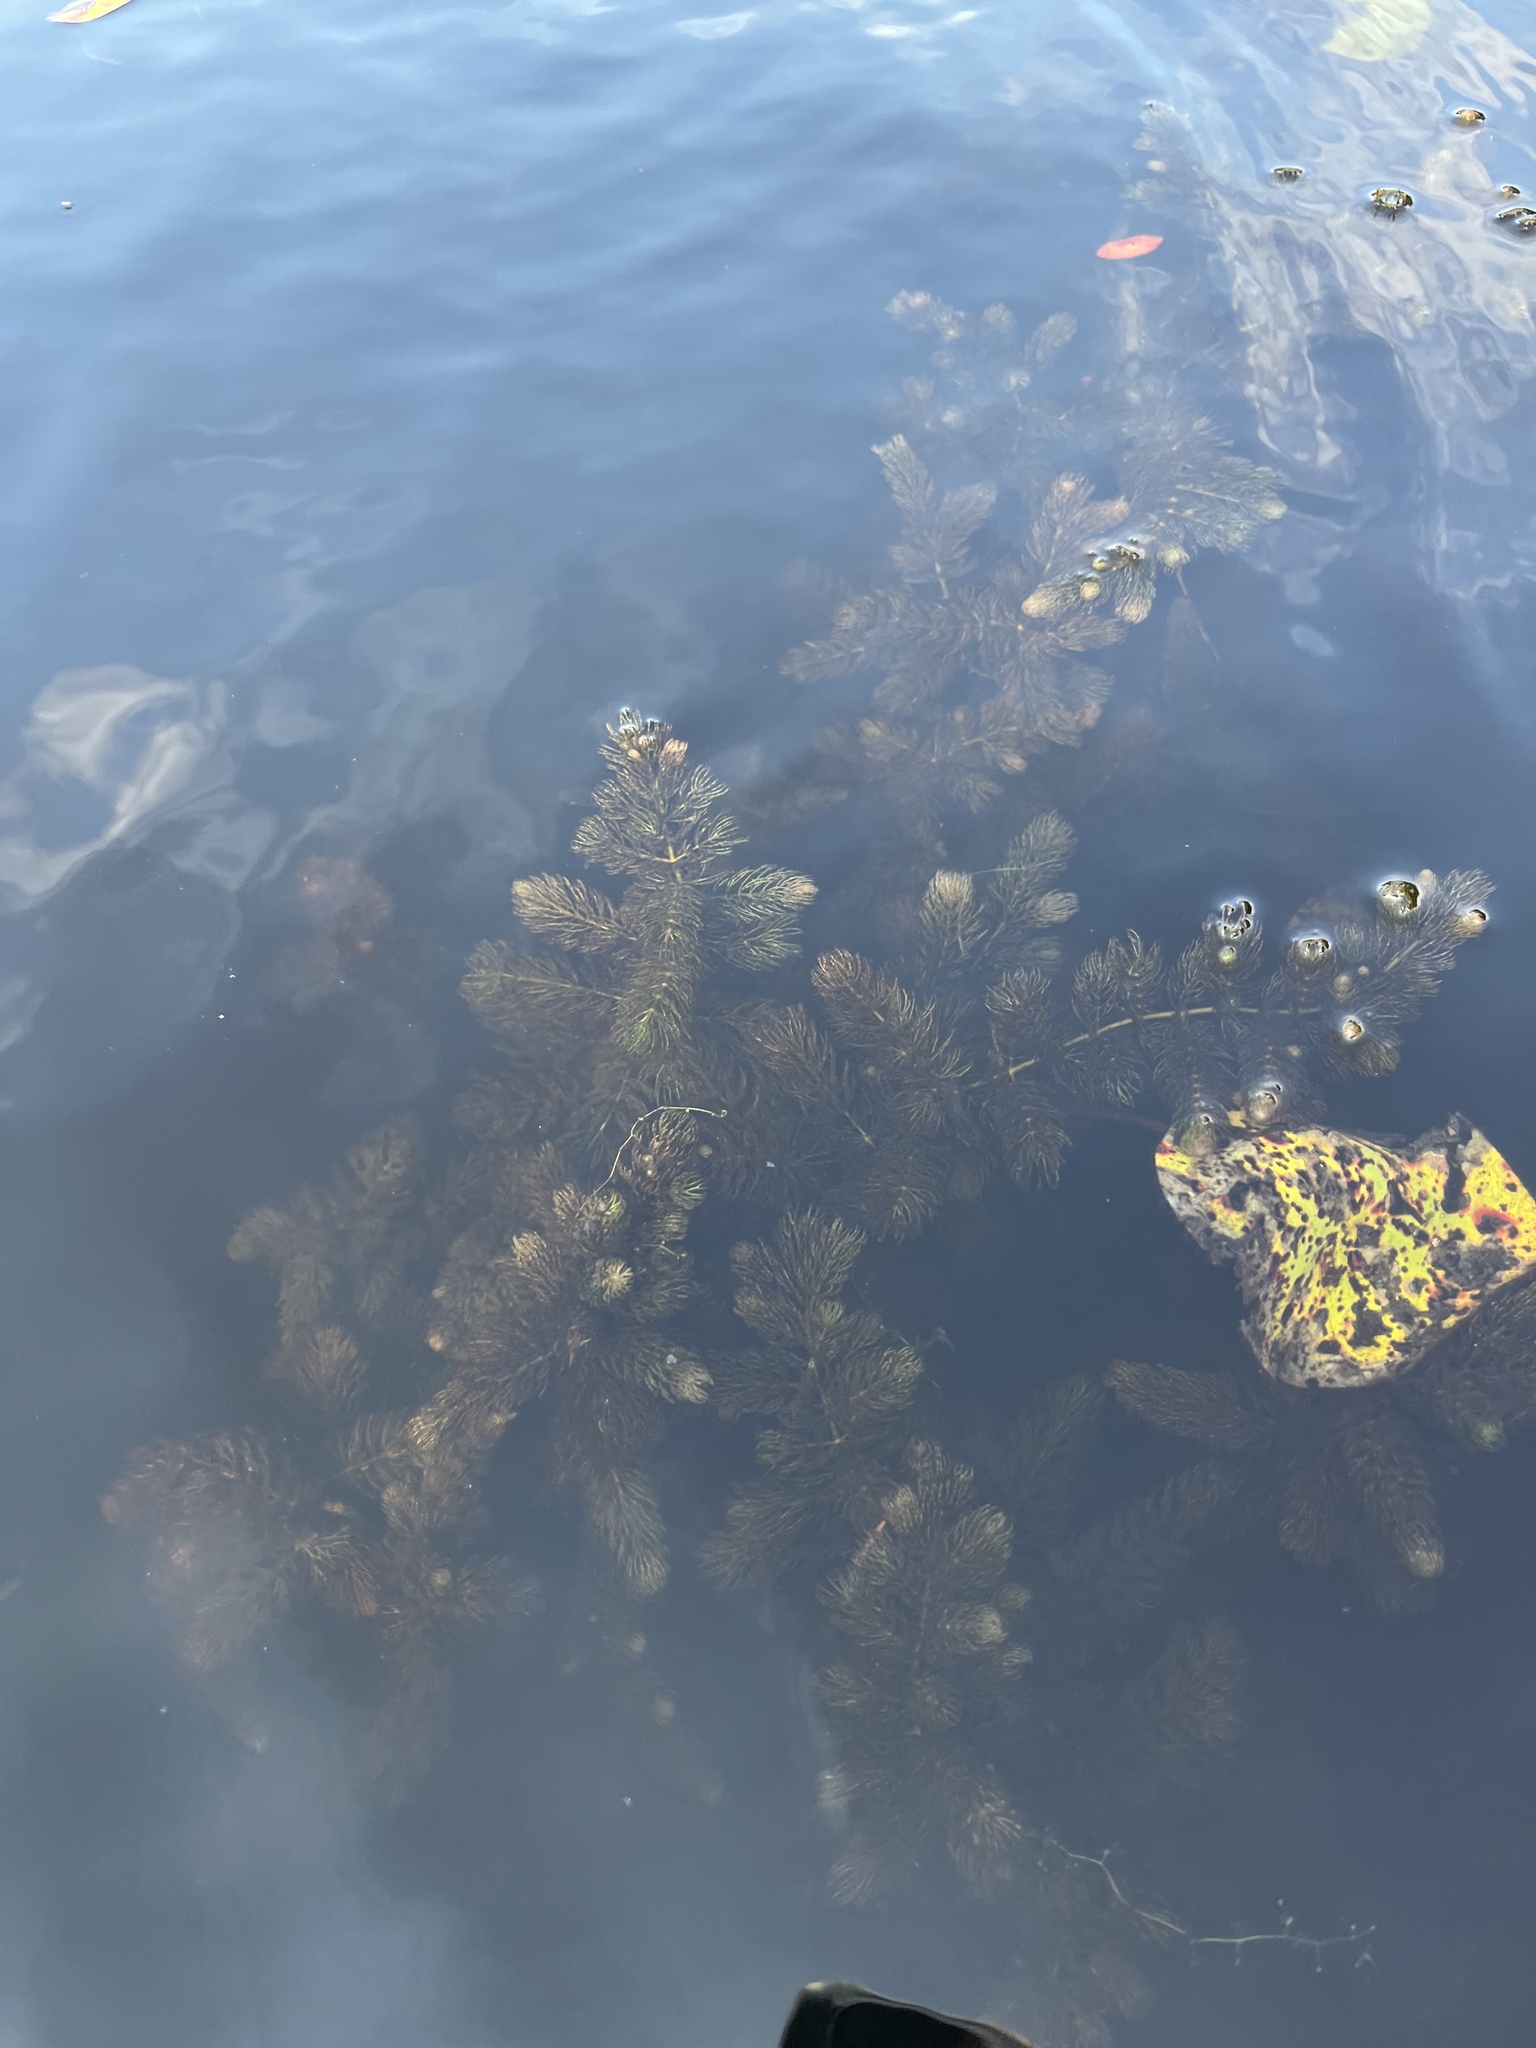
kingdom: Plantae
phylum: Tracheophyta
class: Magnoliopsida
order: Ceratophyllales
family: Ceratophyllaceae
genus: Ceratophyllum
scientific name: Ceratophyllum demersum
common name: Rigid hornwort
